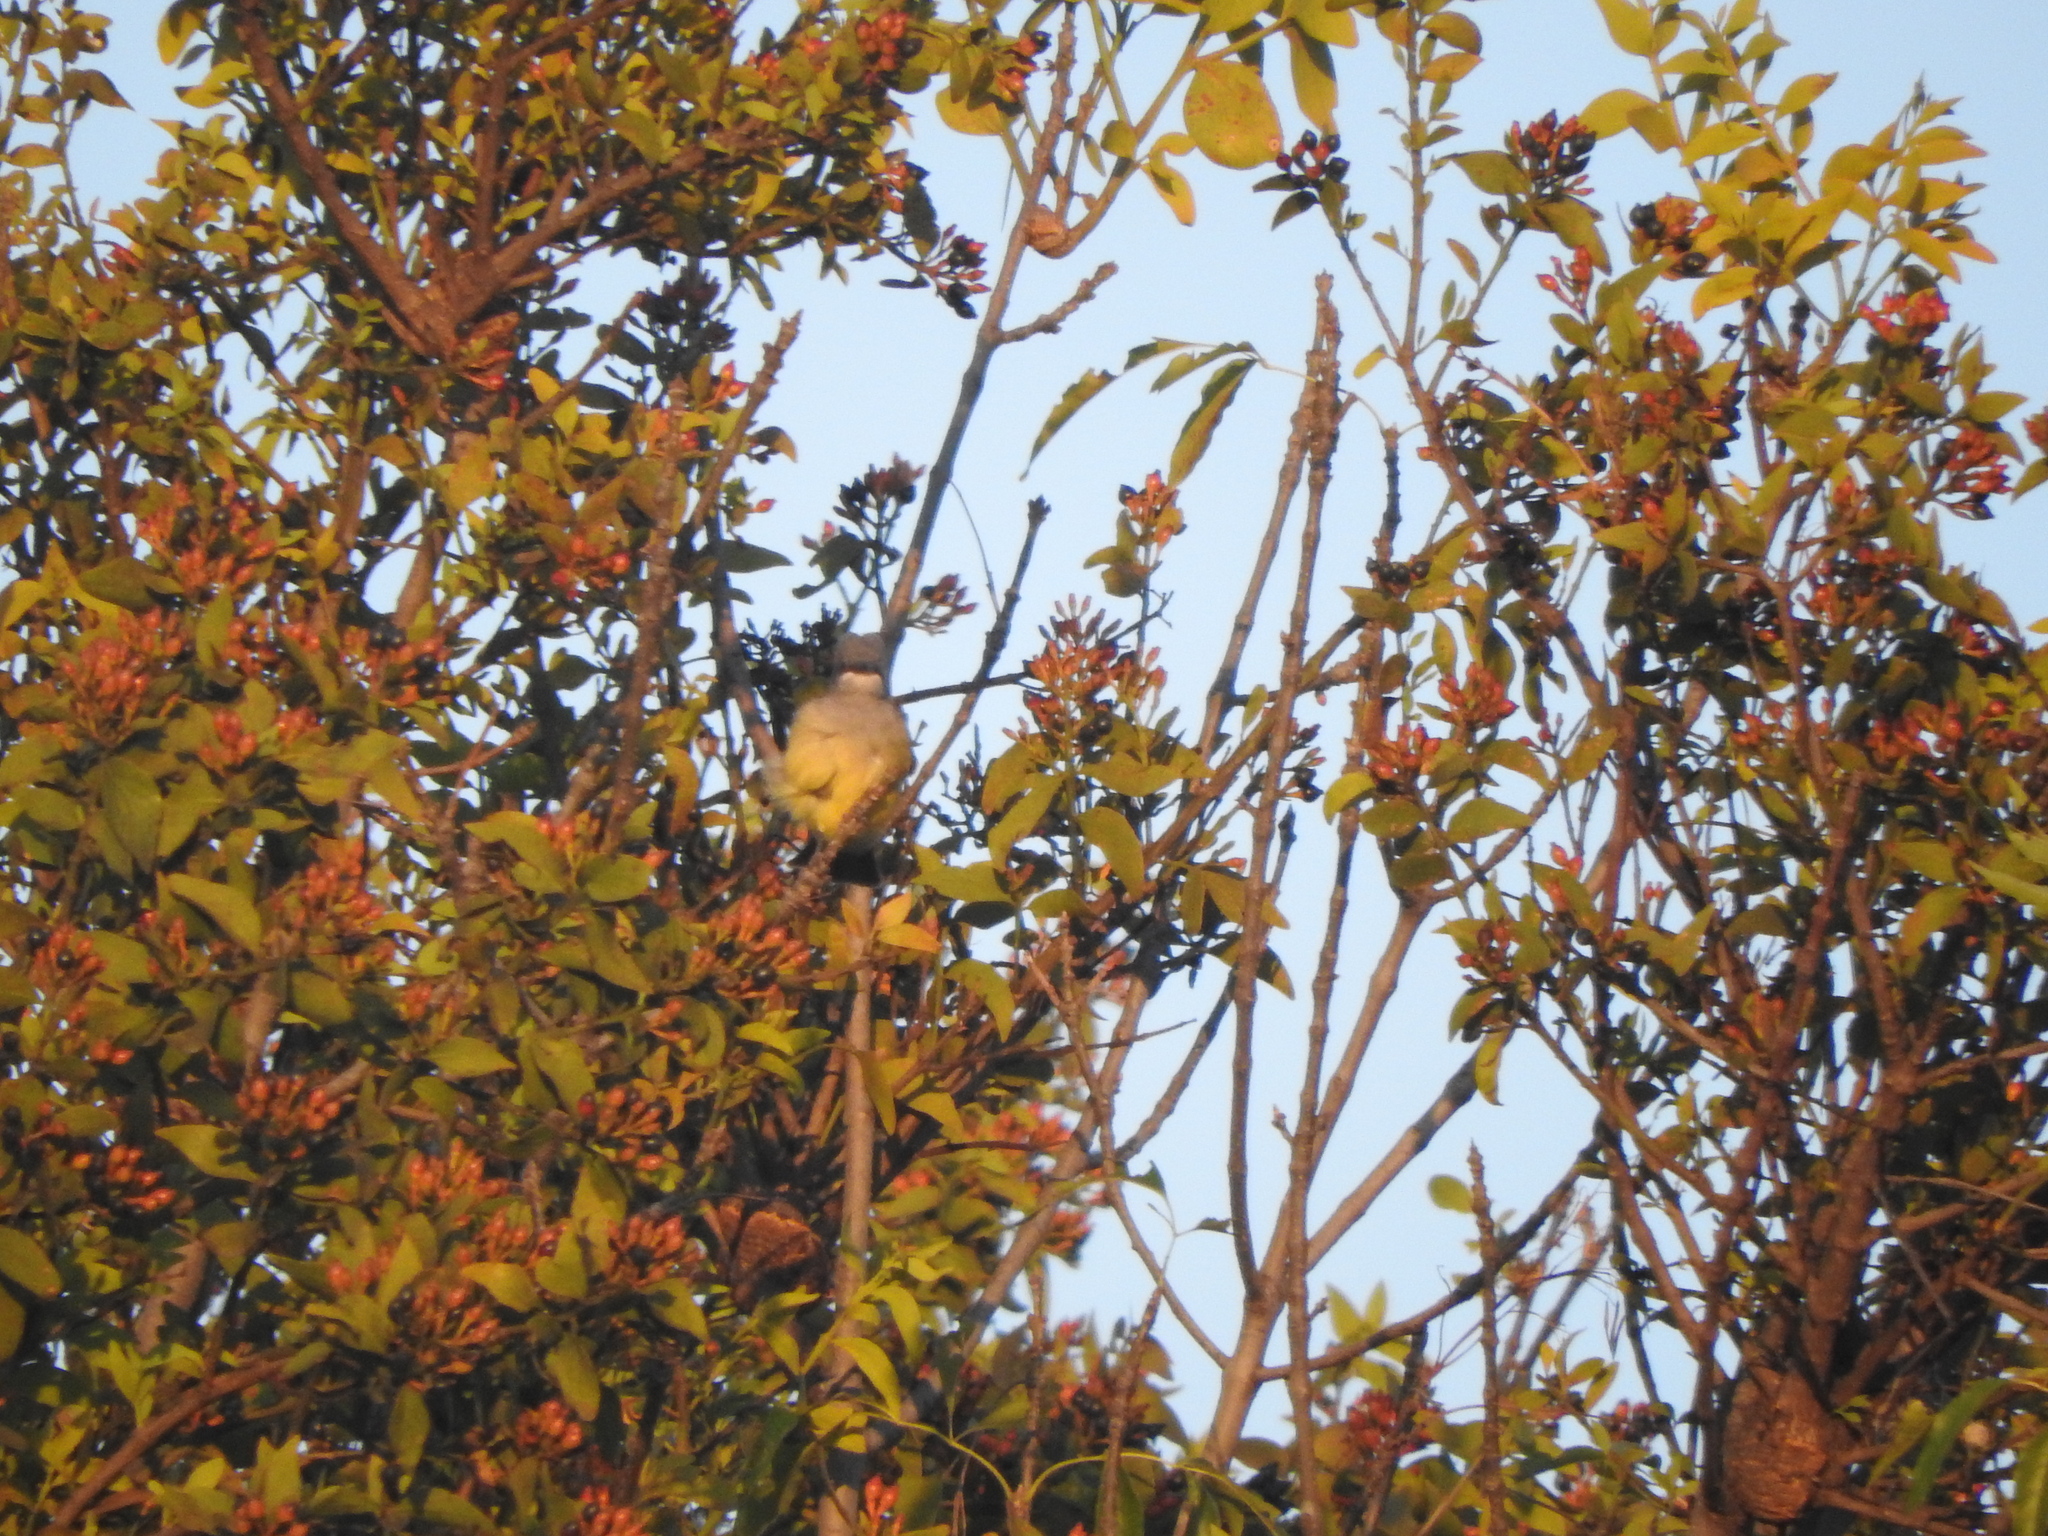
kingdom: Animalia
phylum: Chordata
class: Aves
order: Passeriformes
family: Tyrannidae
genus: Tyrannus
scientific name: Tyrannus vociferans
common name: Cassin's kingbird
